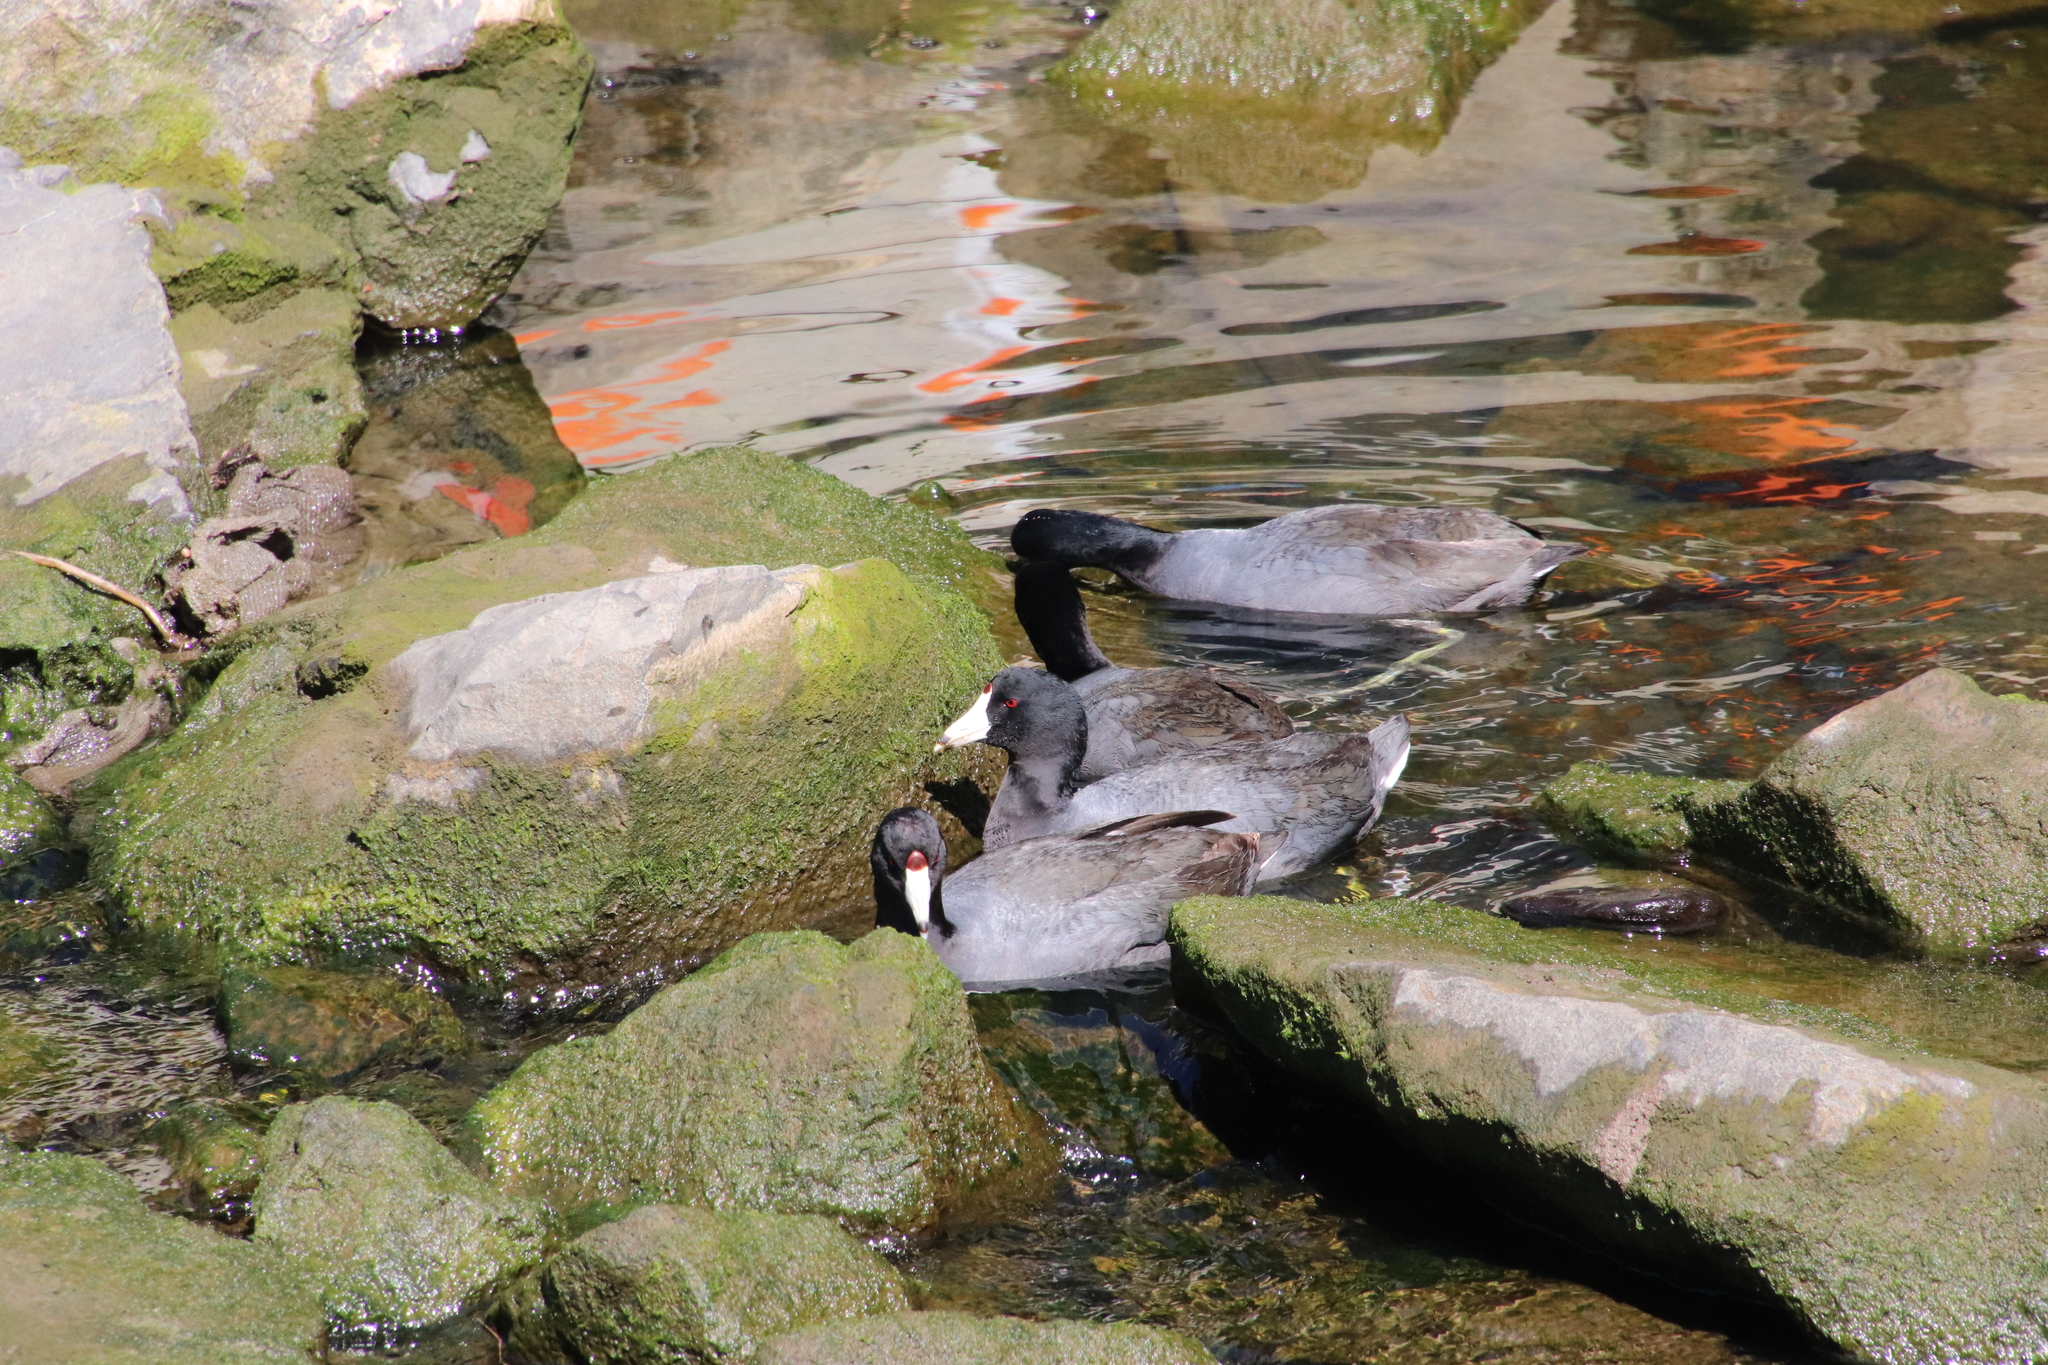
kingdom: Animalia
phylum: Chordata
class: Aves
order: Gruiformes
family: Rallidae
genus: Fulica
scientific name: Fulica americana
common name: American coot
